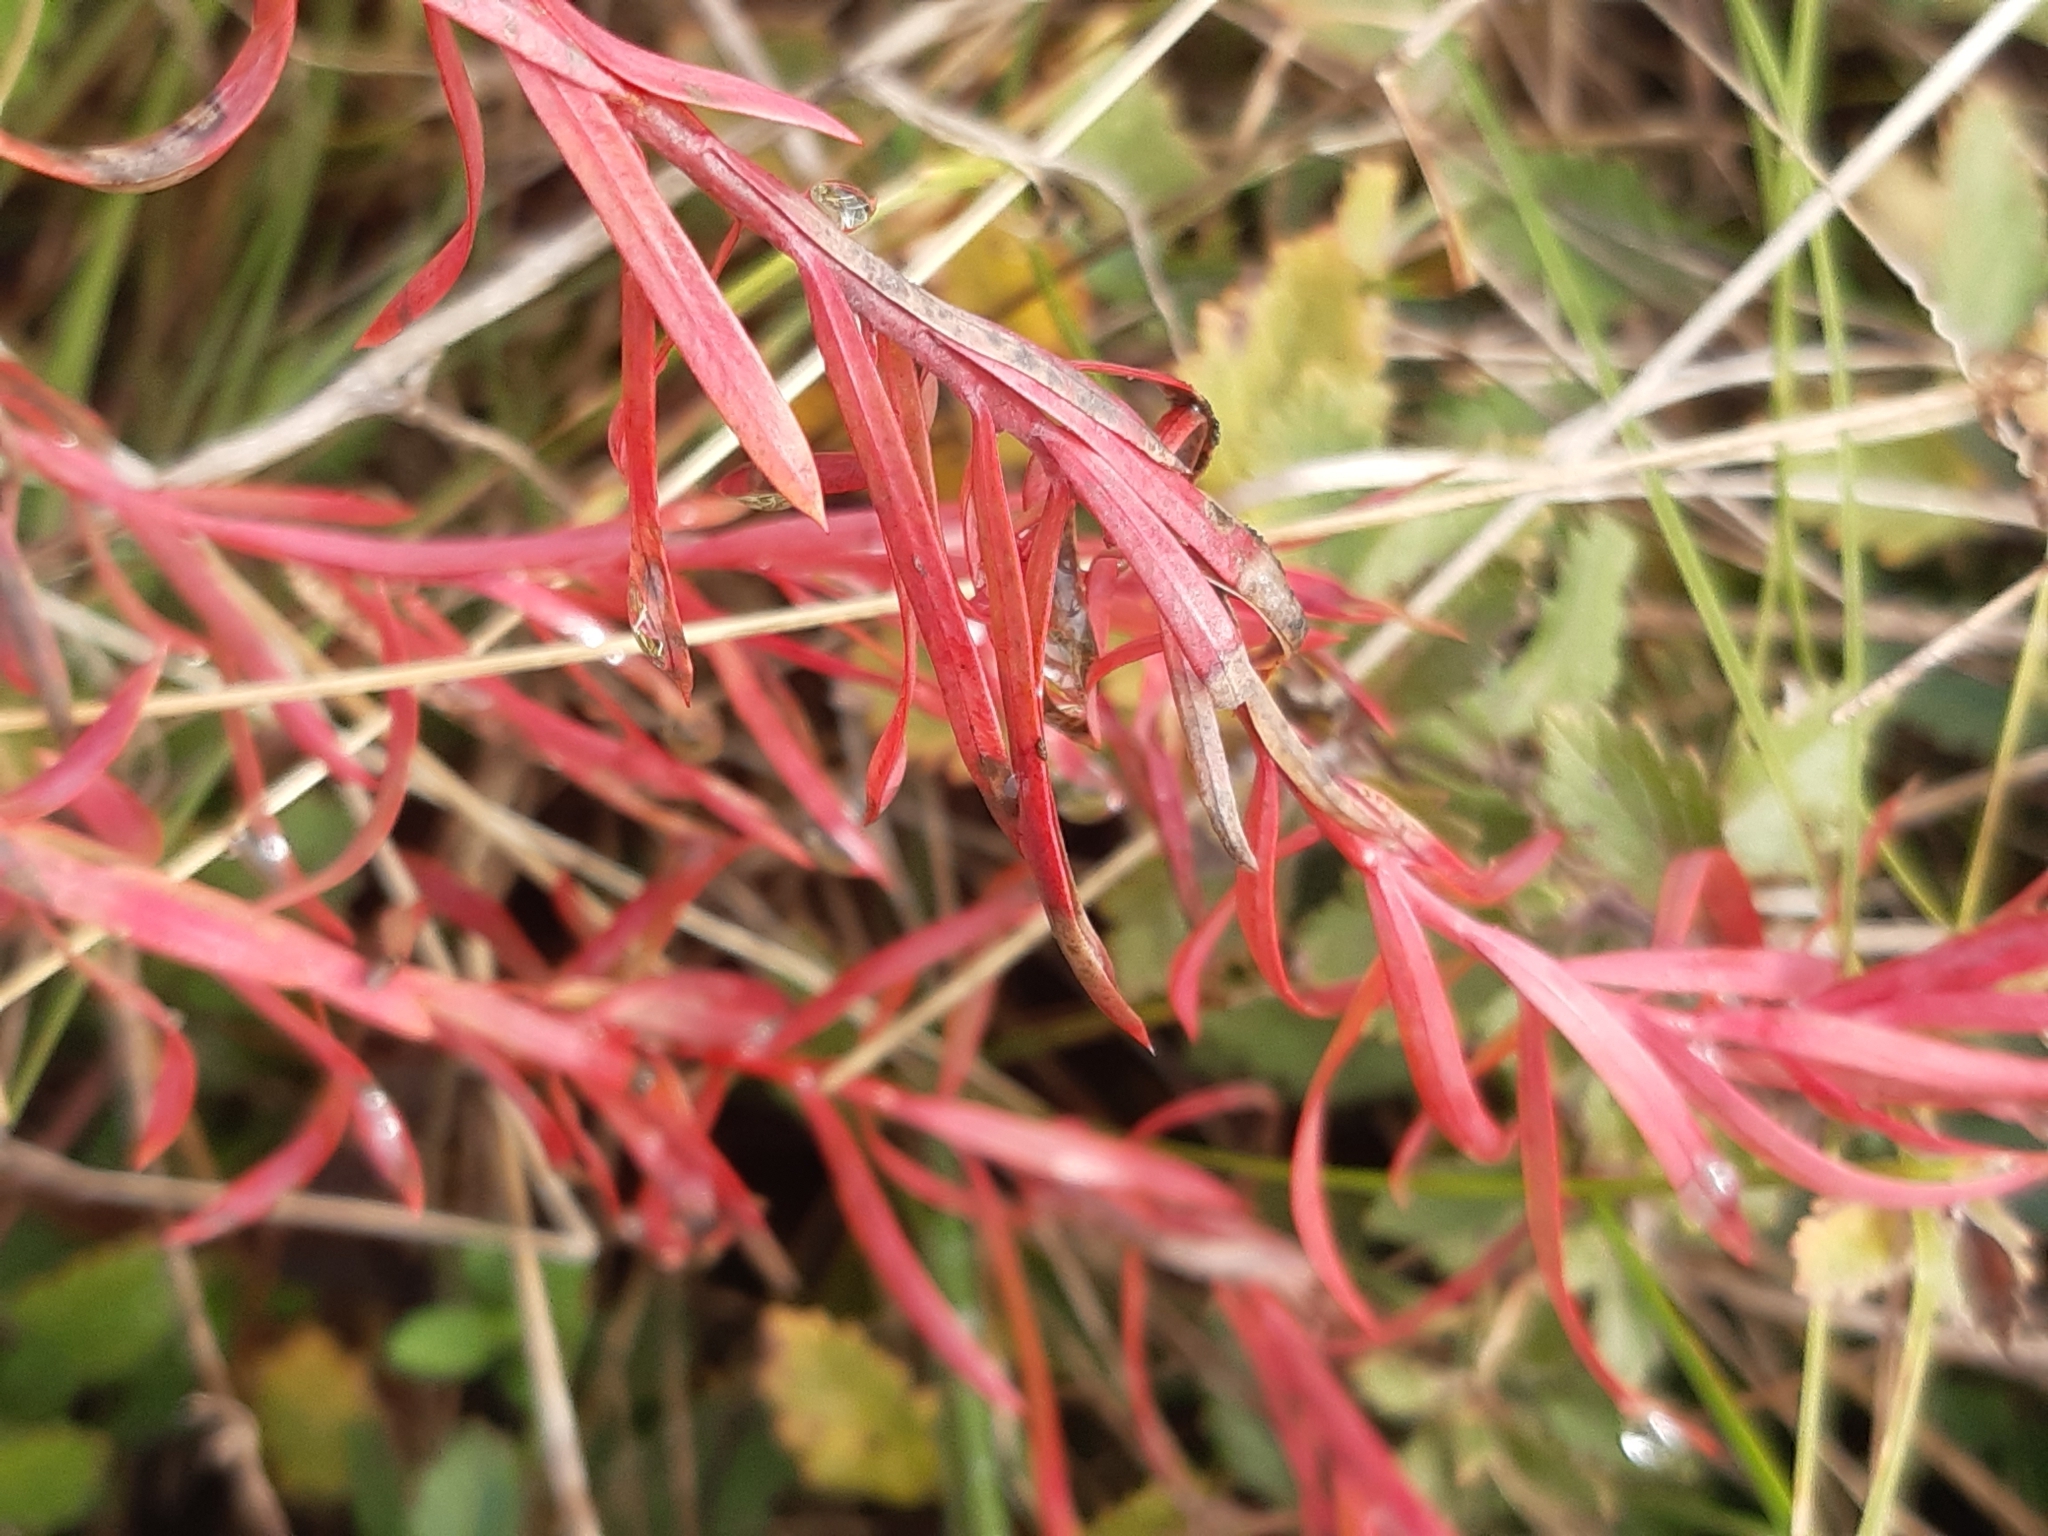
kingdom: Plantae
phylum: Tracheophyta
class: Magnoliopsida
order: Malpighiales
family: Euphorbiaceae
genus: Euphorbia
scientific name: Euphorbia esula
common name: Leafy spurge
